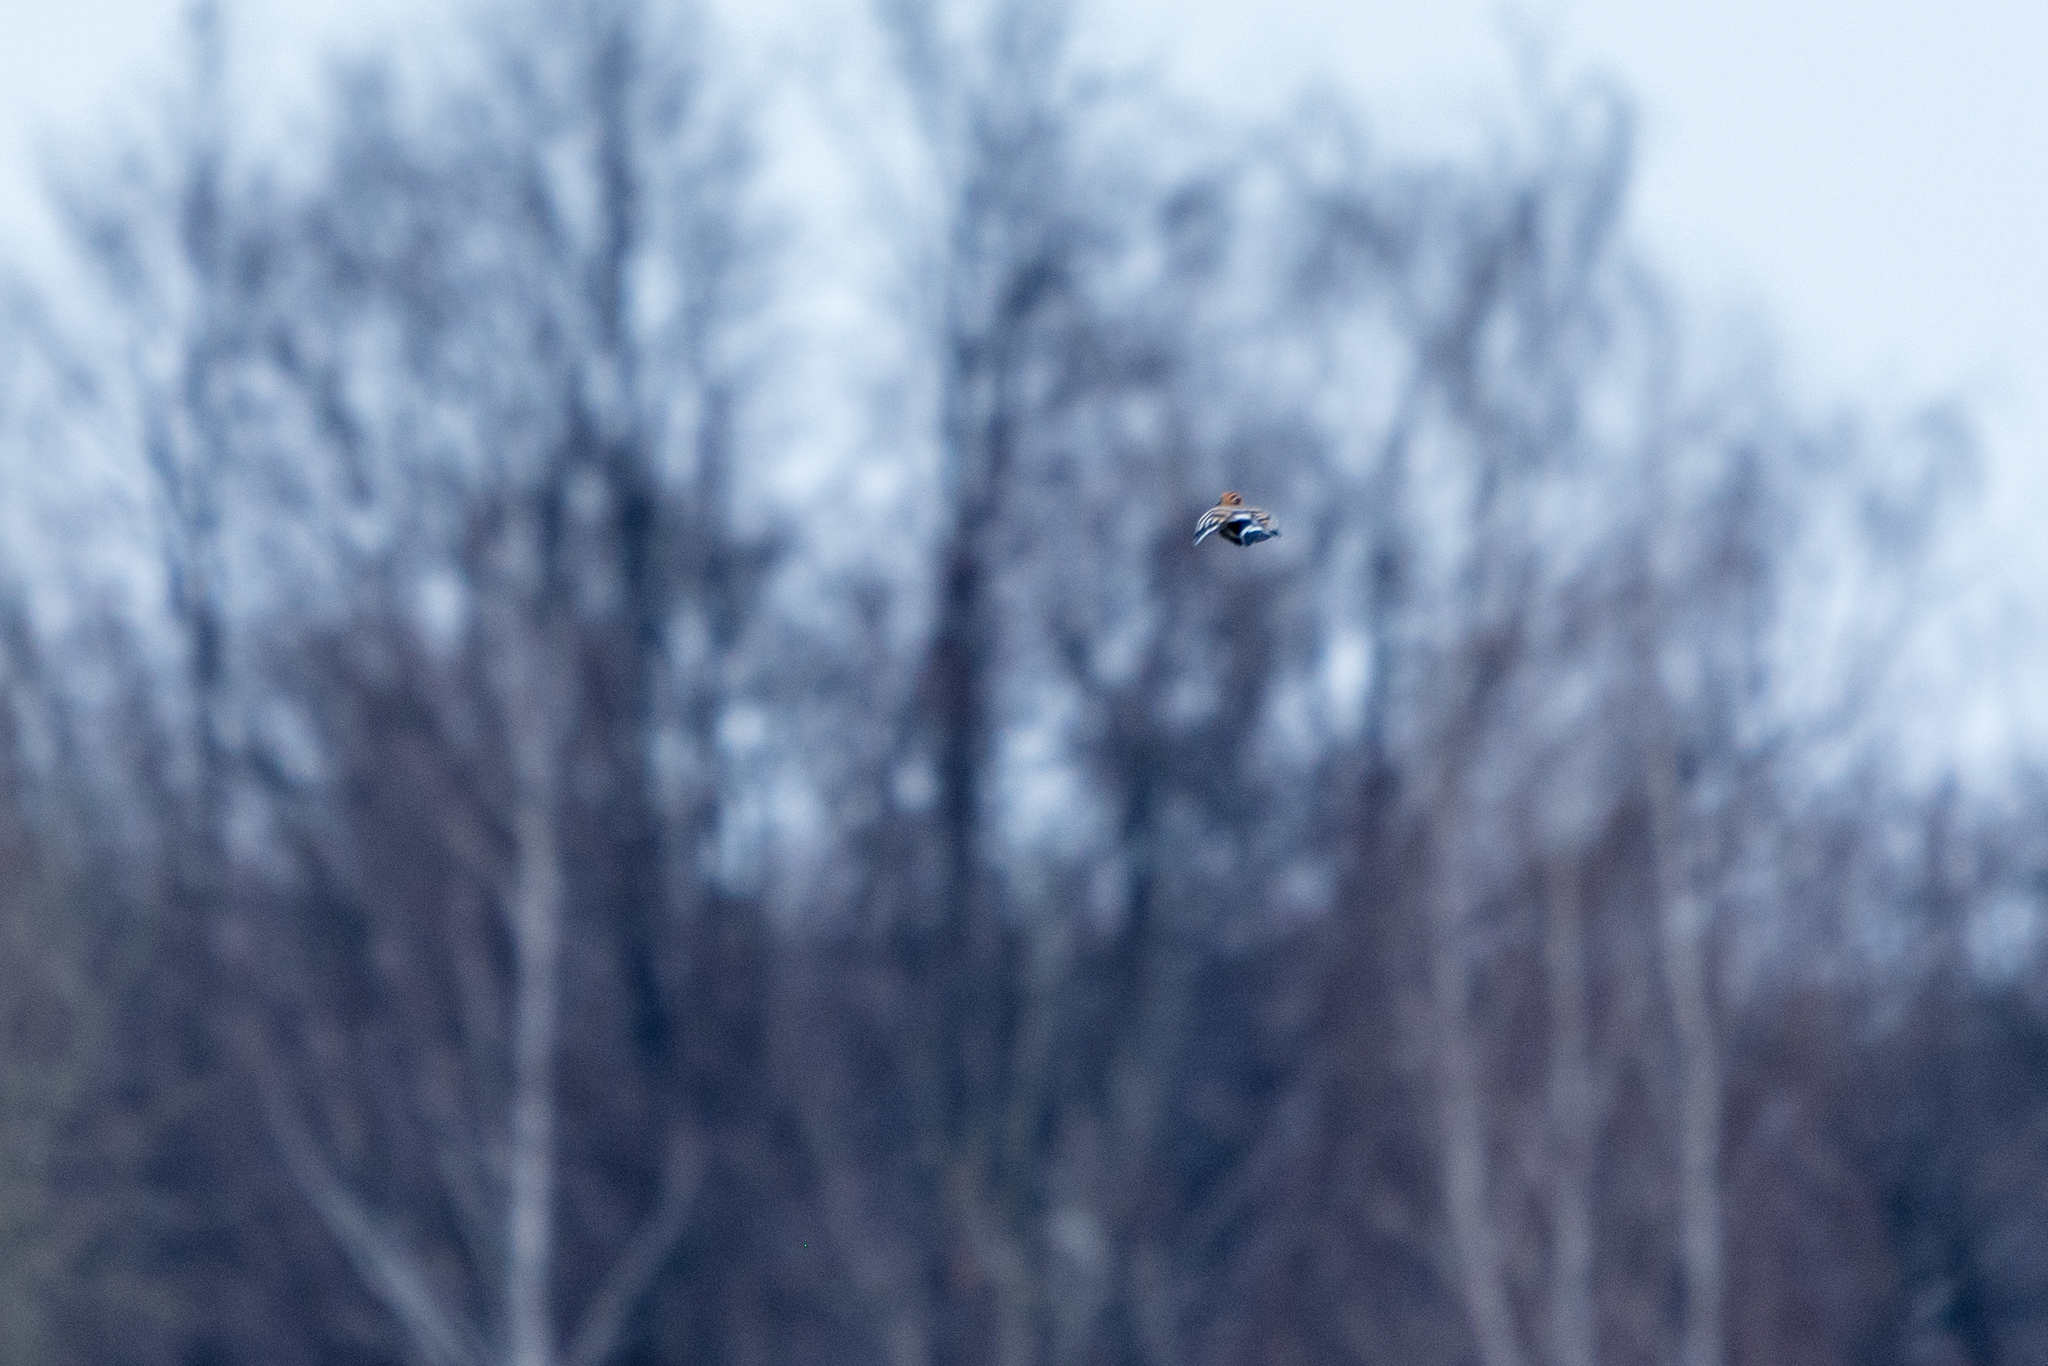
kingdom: Animalia
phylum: Chordata
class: Aves
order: Bucerotiformes
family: Upupidae
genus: Upupa
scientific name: Upupa epops
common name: Eurasian hoopoe
